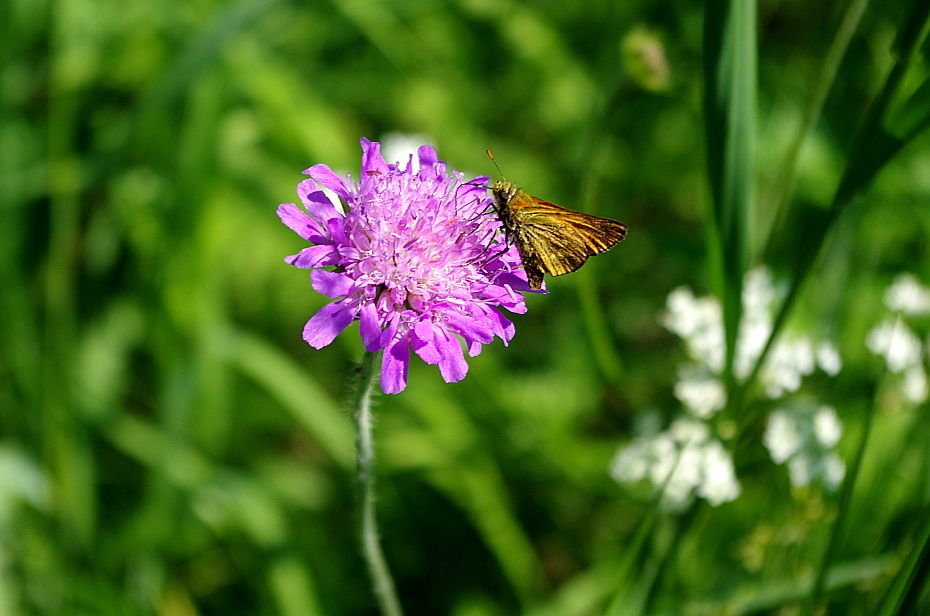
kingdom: Animalia
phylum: Arthropoda
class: Insecta
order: Lepidoptera
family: Hesperiidae
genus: Ochlodes
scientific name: Ochlodes venata
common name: Large skipper
